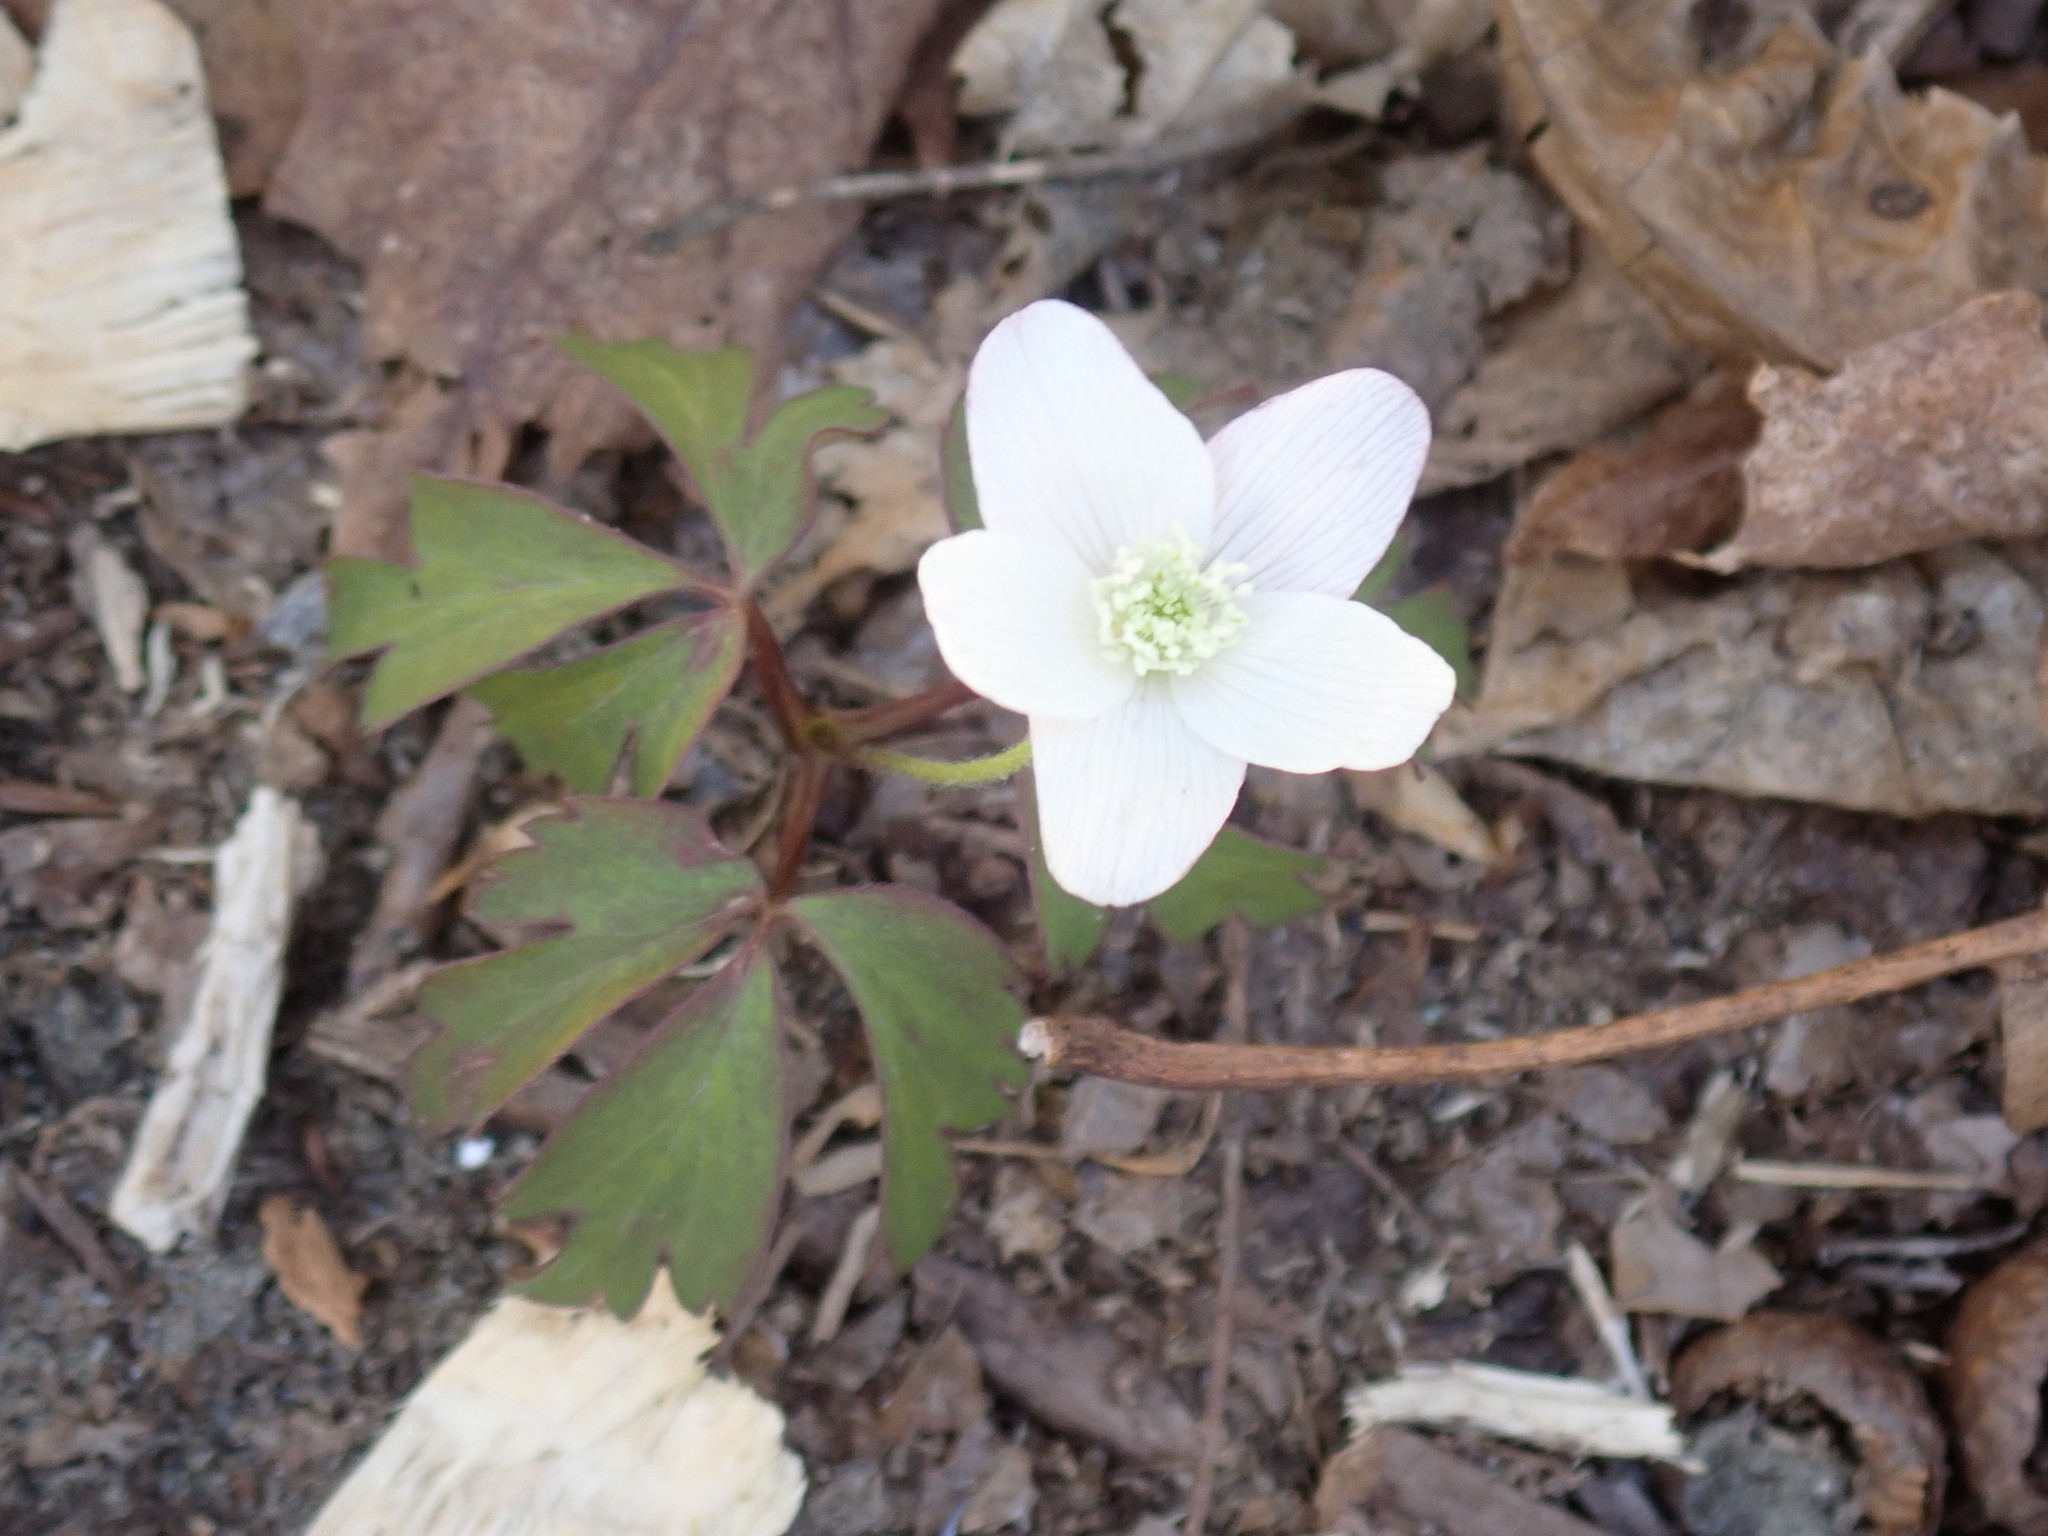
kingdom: Plantae
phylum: Tracheophyta
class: Magnoliopsida
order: Ranunculales
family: Ranunculaceae
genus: Anemone
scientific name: Anemone quinquefolia
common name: Wood anemone
